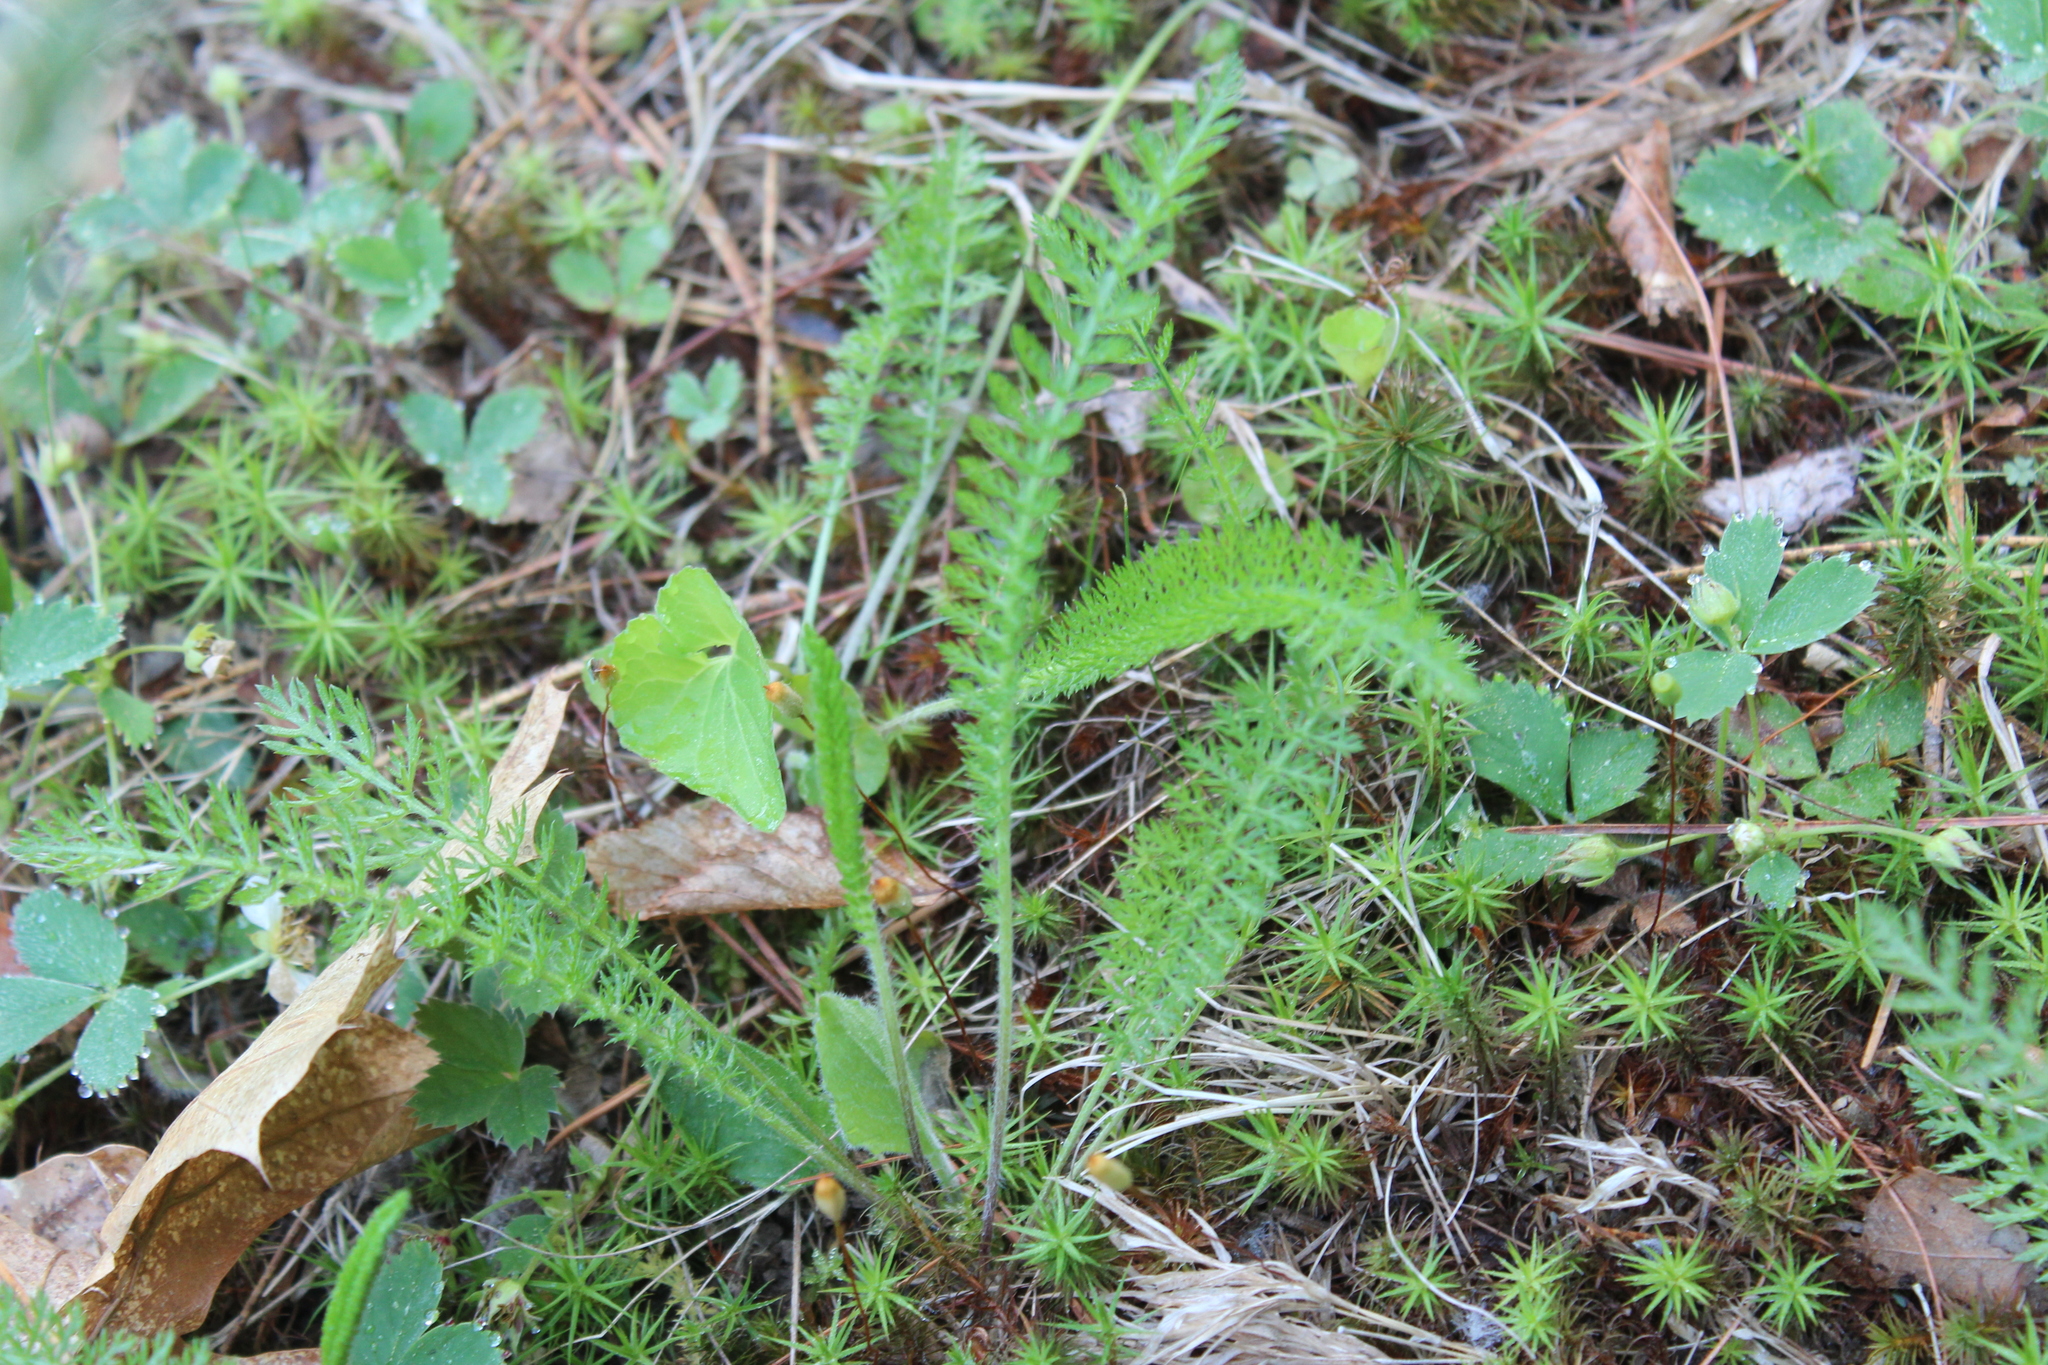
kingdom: Plantae
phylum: Tracheophyta
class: Magnoliopsida
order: Asterales
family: Asteraceae
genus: Achillea
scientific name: Achillea millefolium
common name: Yarrow
